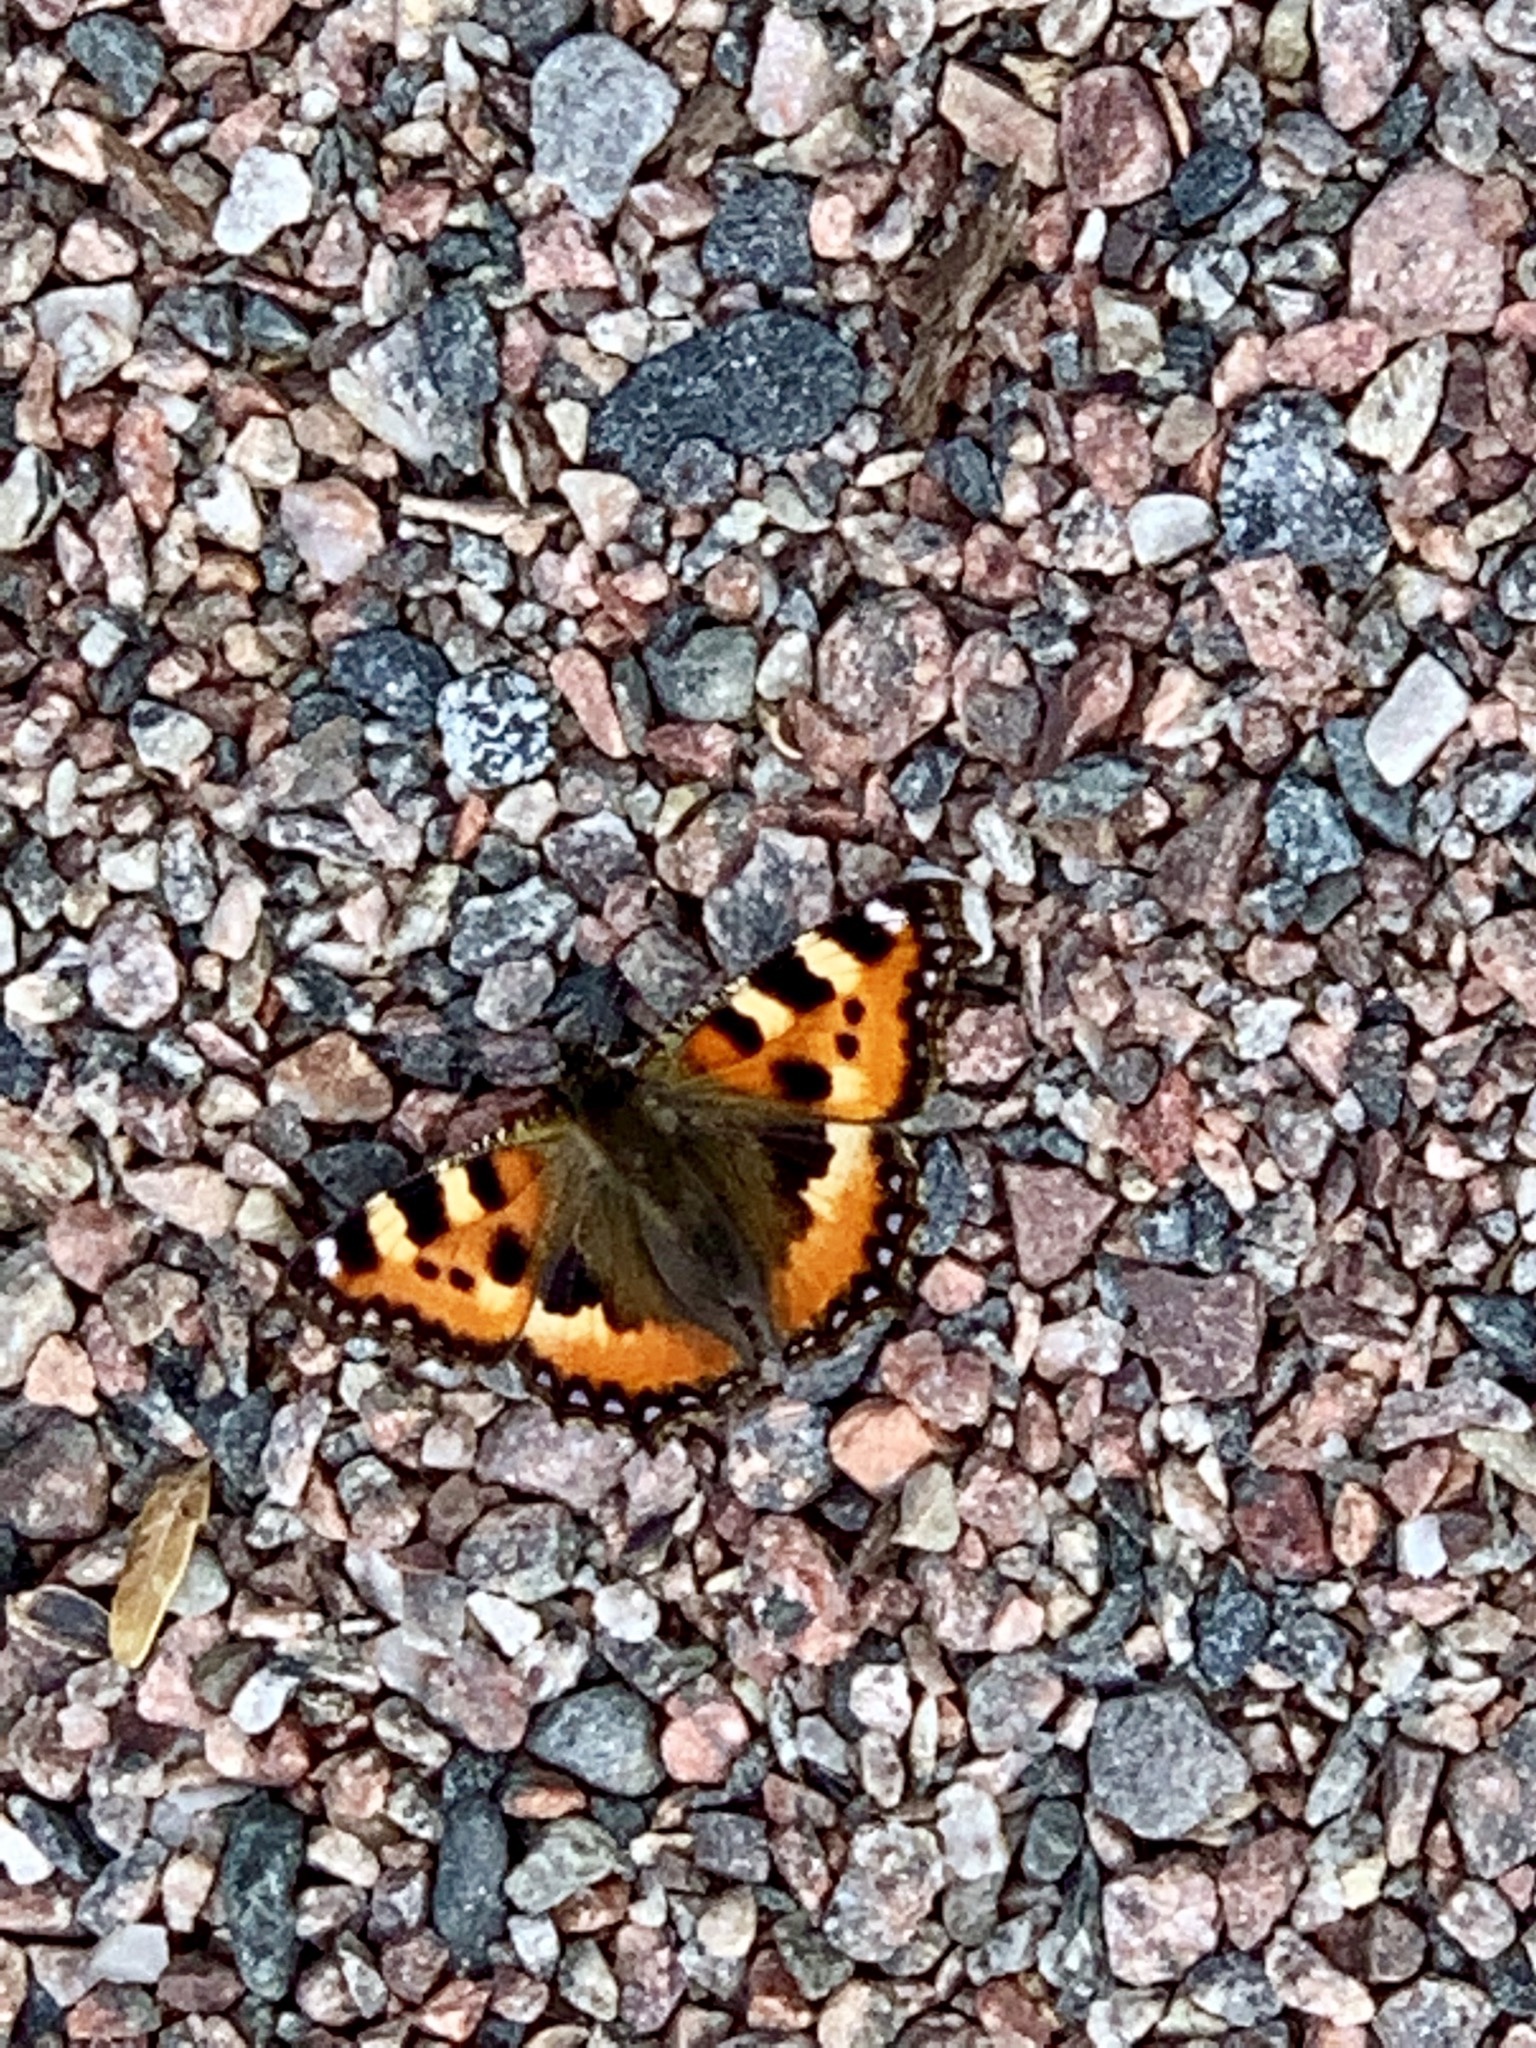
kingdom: Animalia
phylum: Arthropoda
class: Insecta
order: Lepidoptera
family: Nymphalidae
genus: Aglais
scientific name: Aglais urticae
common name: Small tortoiseshell
